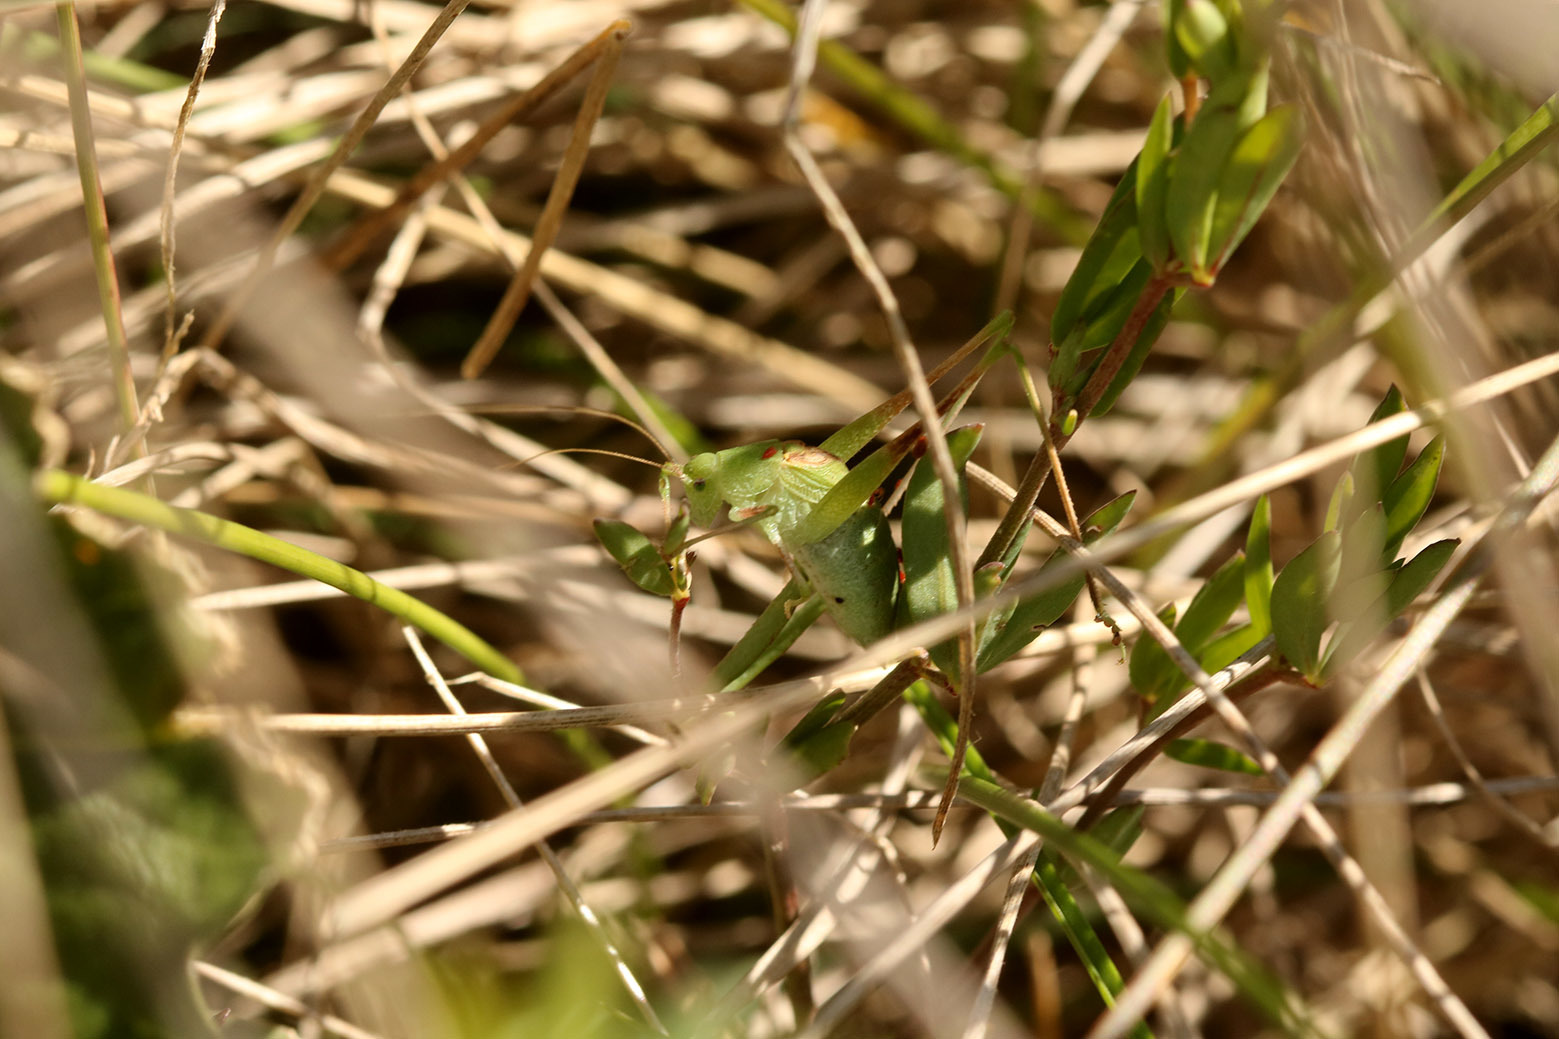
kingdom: Animalia
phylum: Arthropoda
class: Insecta
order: Orthoptera
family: Tettigoniidae
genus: Anisophya
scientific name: Anisophya
